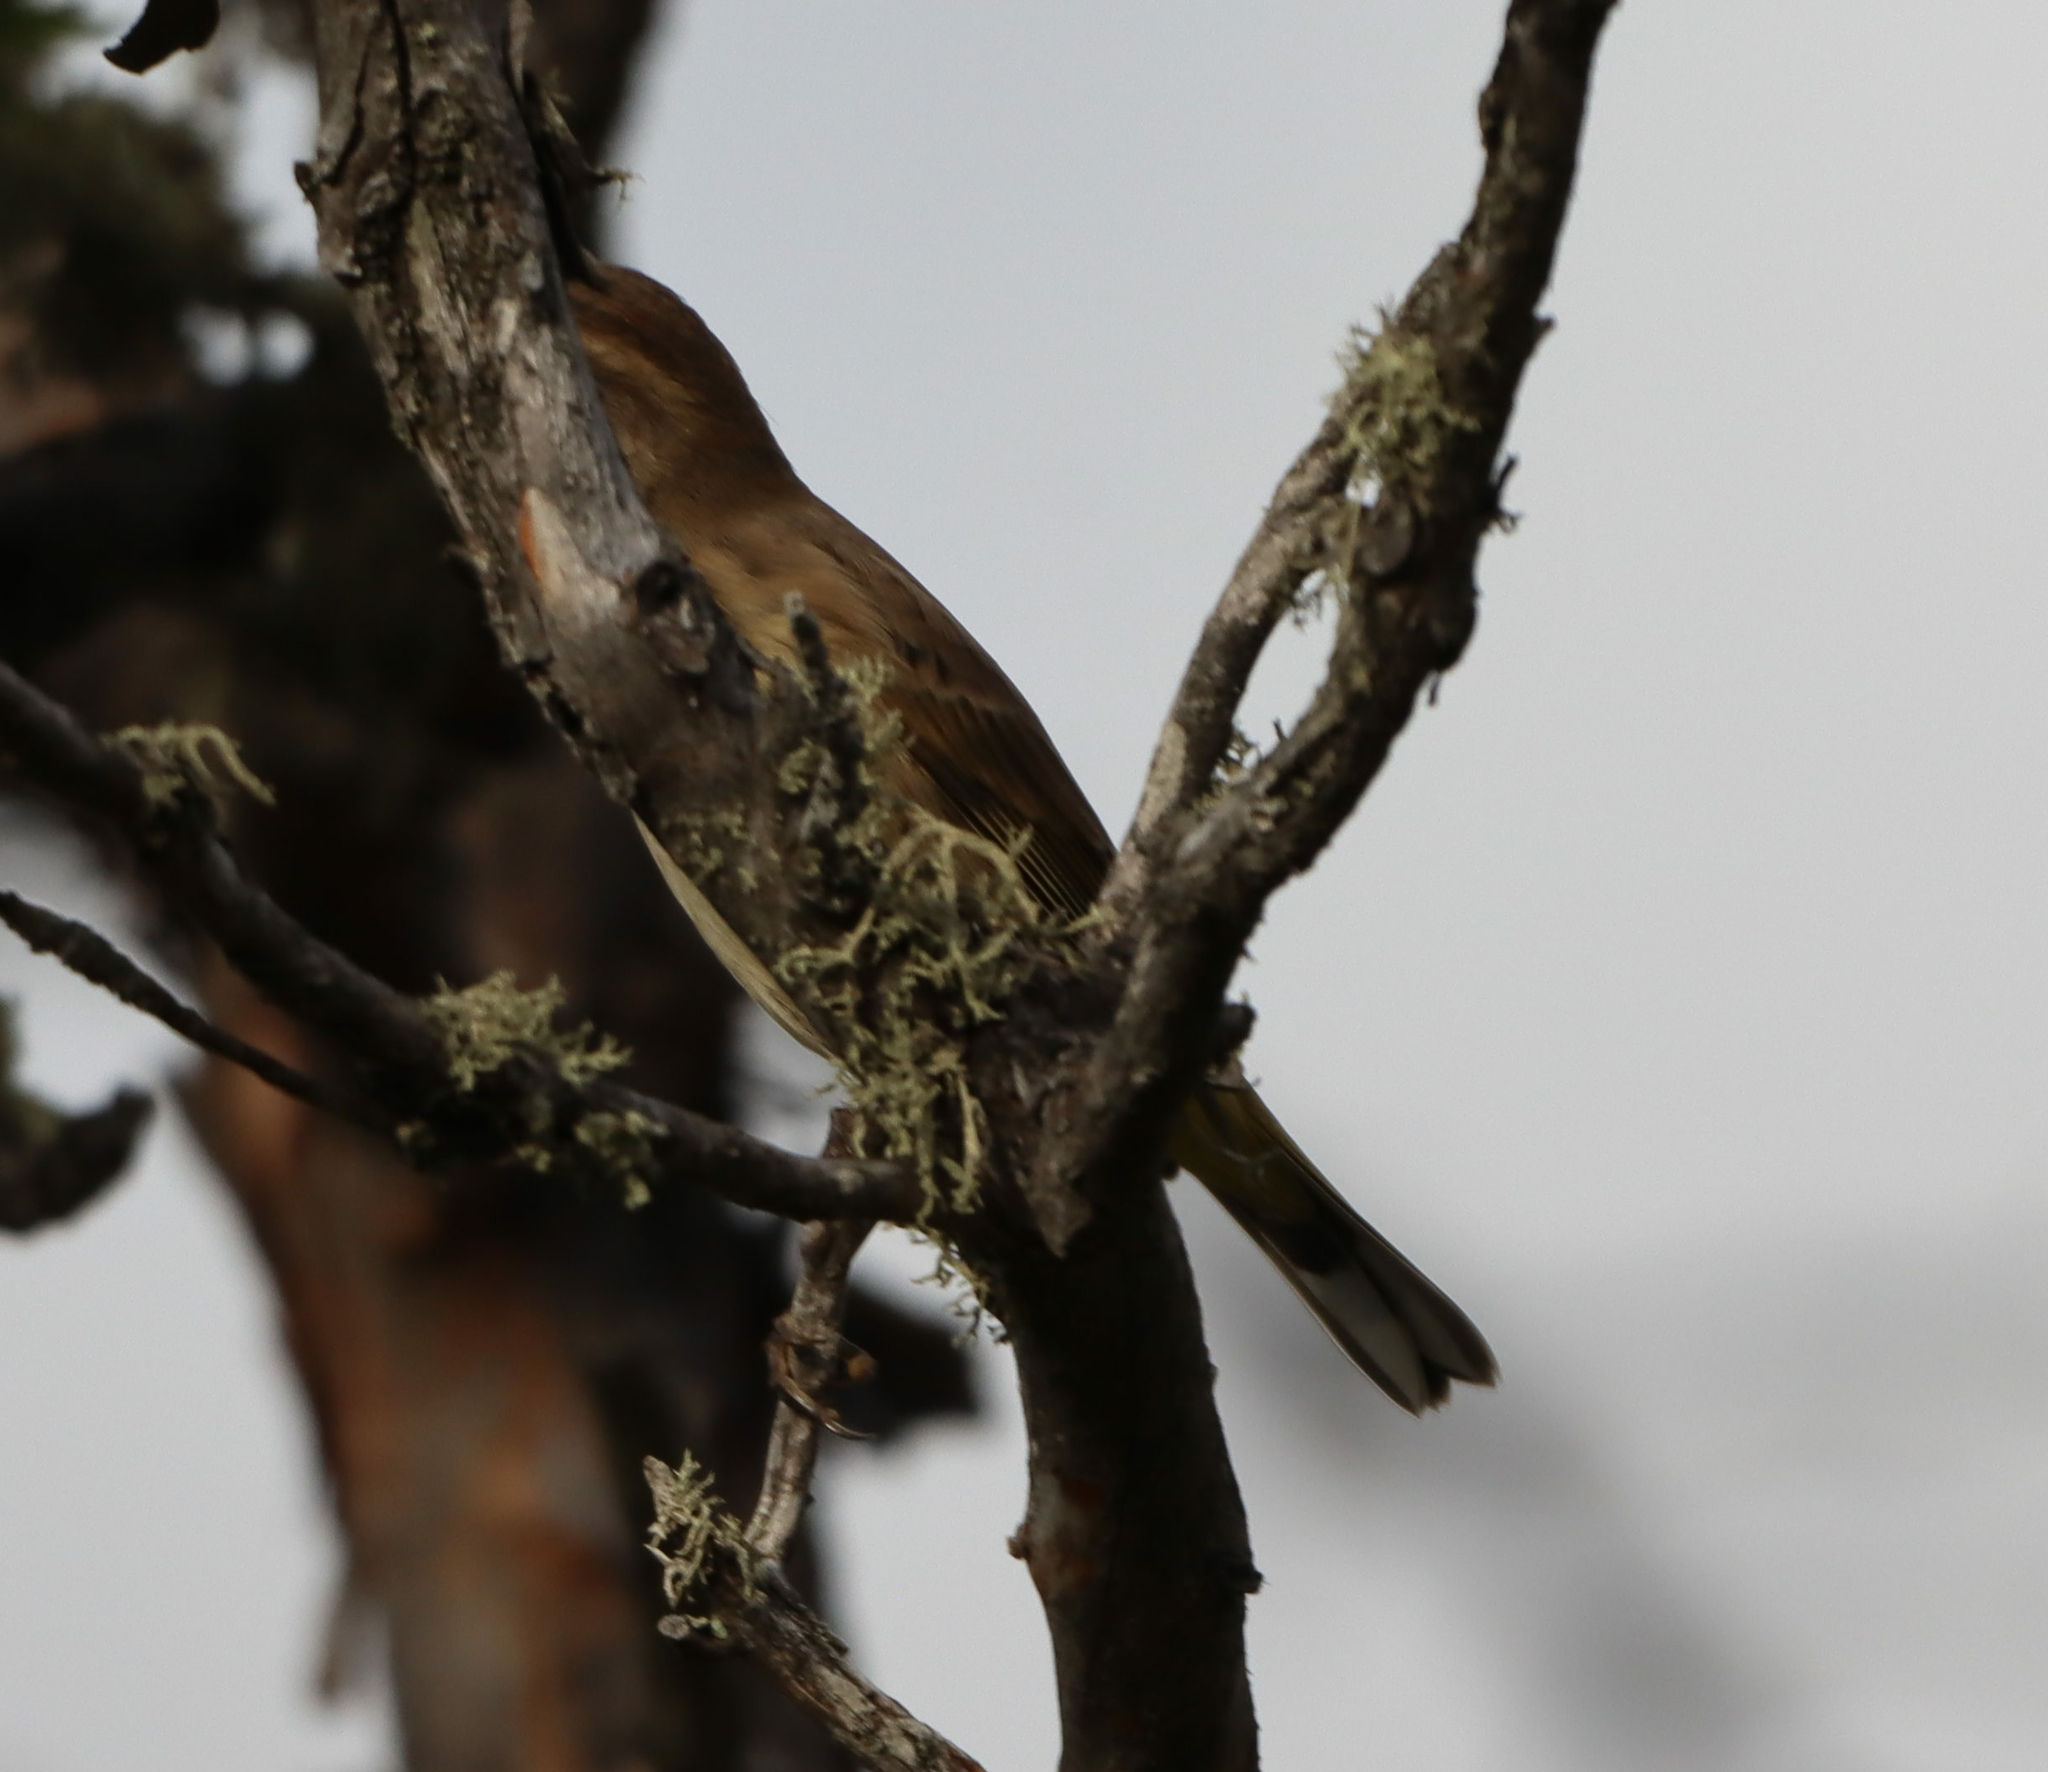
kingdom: Animalia
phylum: Chordata
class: Aves
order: Passeriformes
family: Parulidae
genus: Setophaga
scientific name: Setophaga palmarum
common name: Palm warbler
